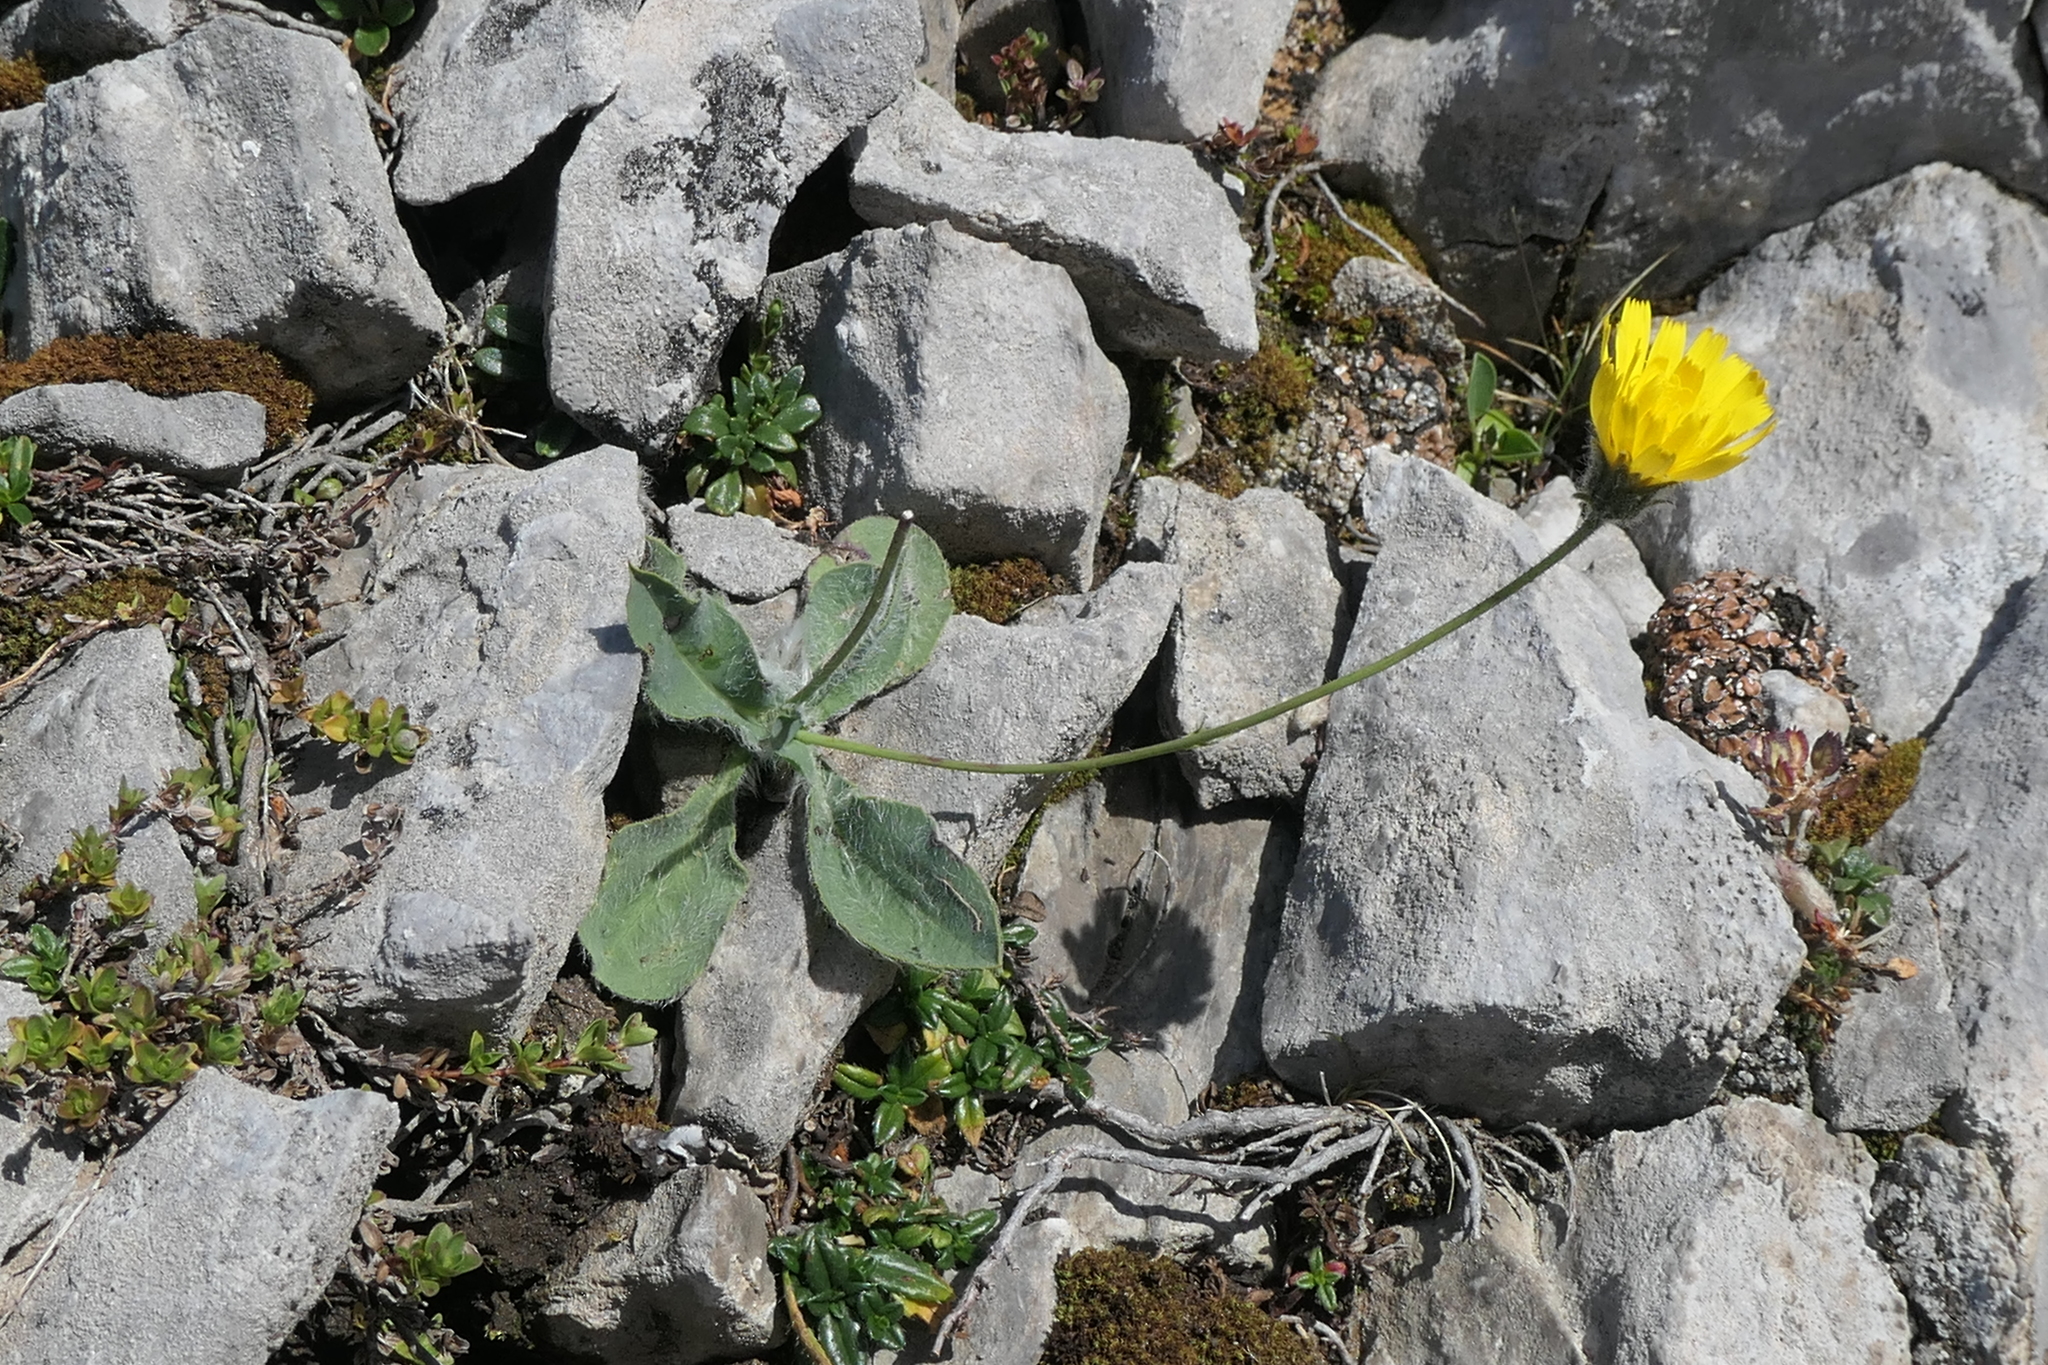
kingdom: Plantae
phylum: Tracheophyta
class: Magnoliopsida
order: Asterales
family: Asteraceae
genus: Pilosella
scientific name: Pilosella officinarum
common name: Mouse-ear hawkweed
